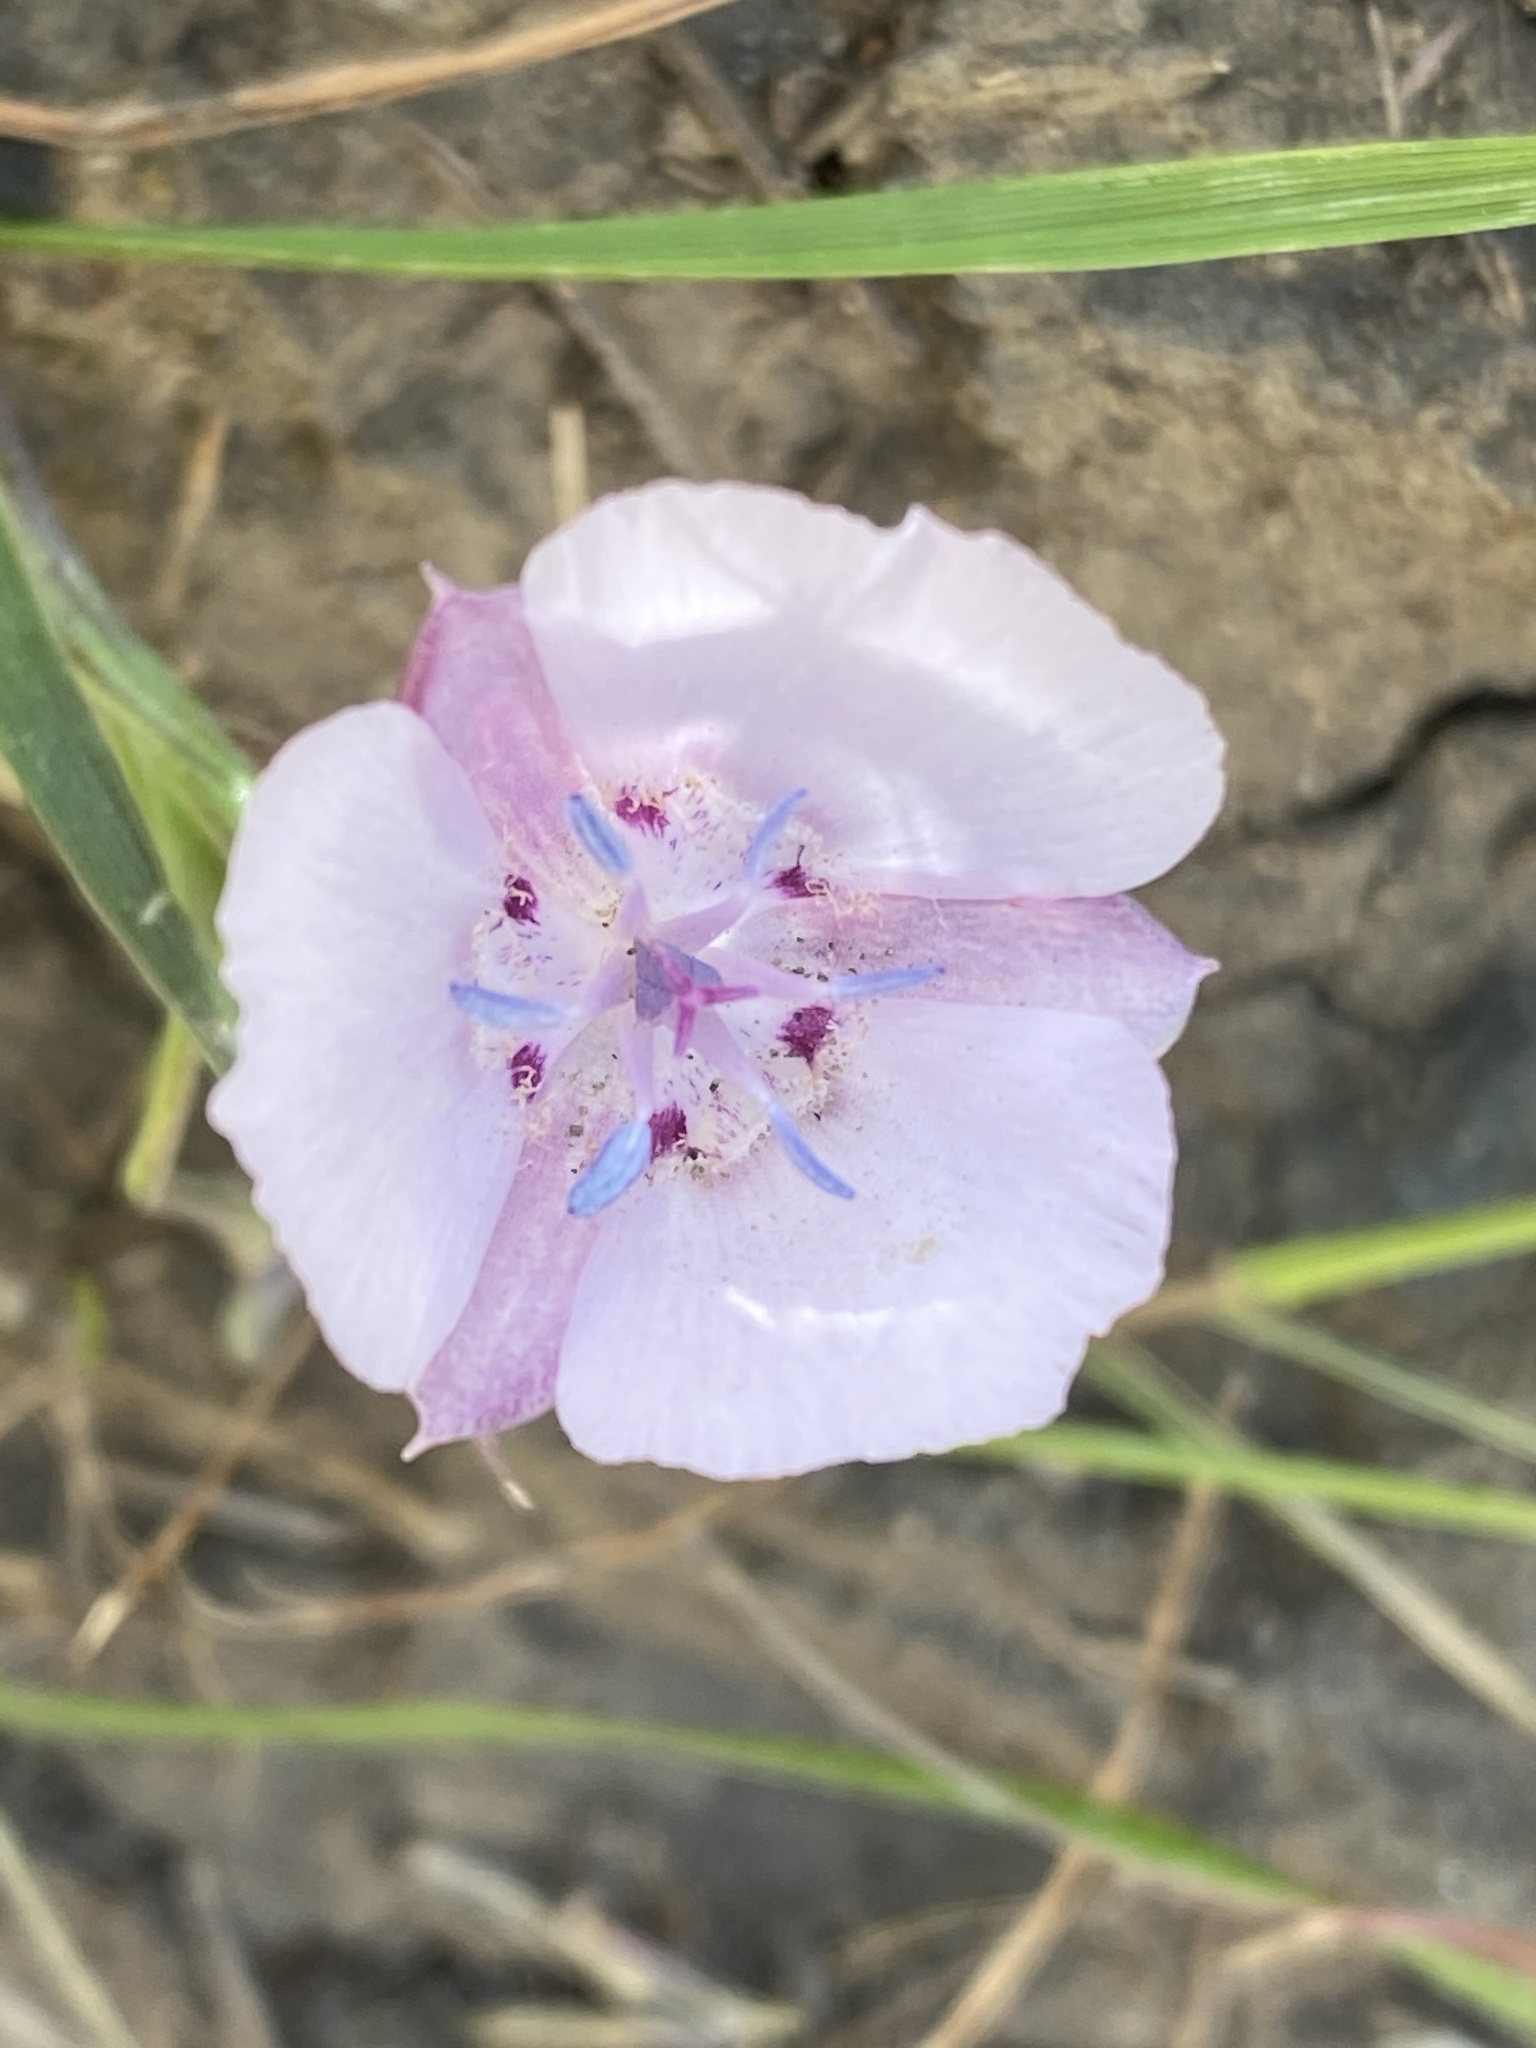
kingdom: Plantae
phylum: Tracheophyta
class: Liliopsida
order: Liliales
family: Liliaceae
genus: Calochortus
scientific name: Calochortus umbellatus
